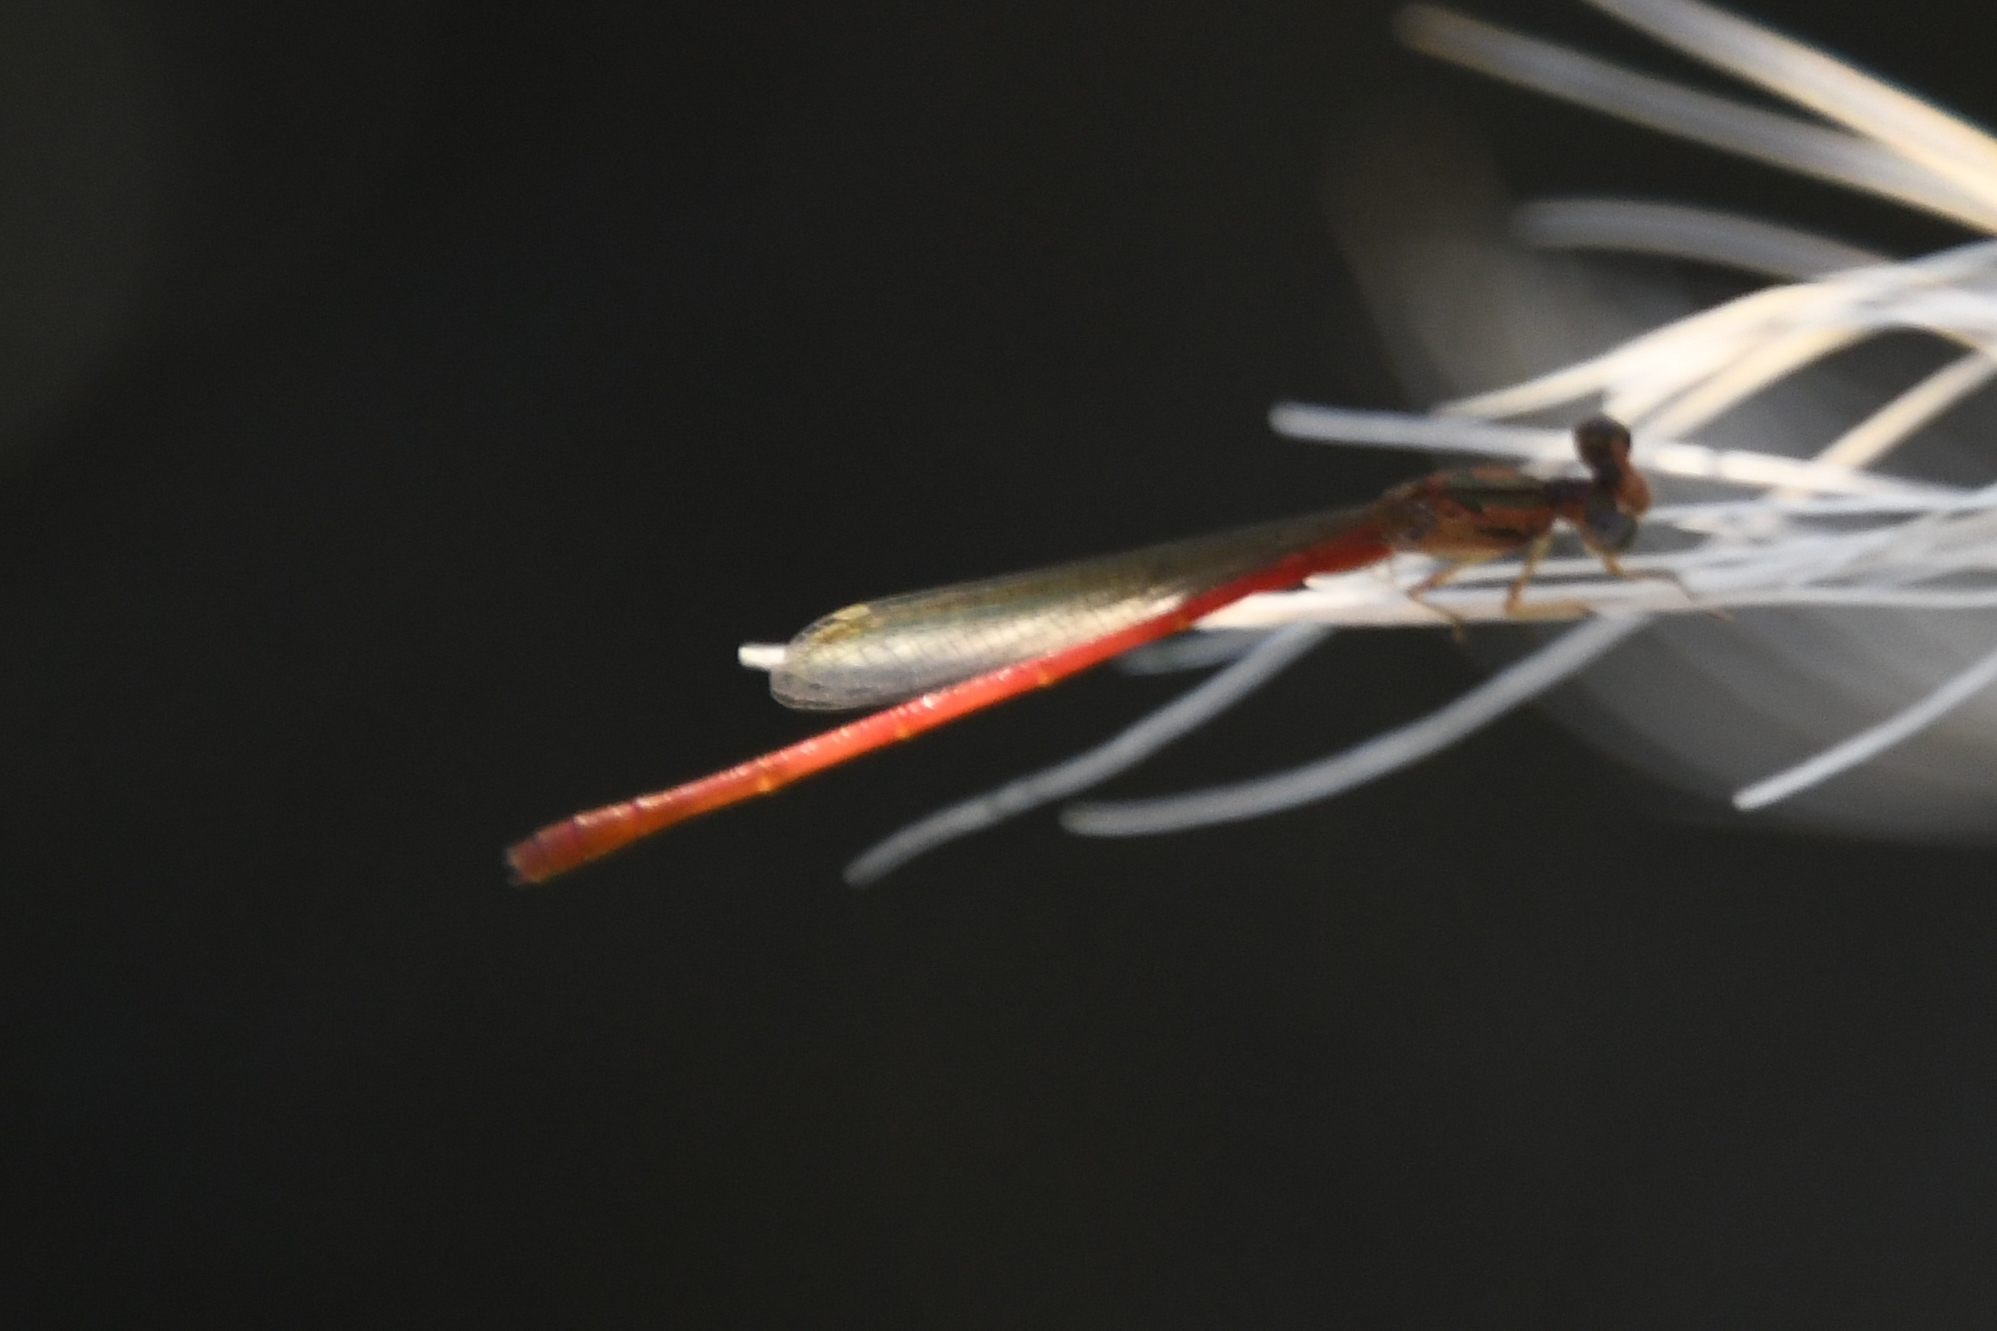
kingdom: Animalia
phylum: Arthropoda
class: Insecta
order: Odonata
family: Coenagrionidae
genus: Telebasis
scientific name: Telebasis salva
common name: Desert firetail
